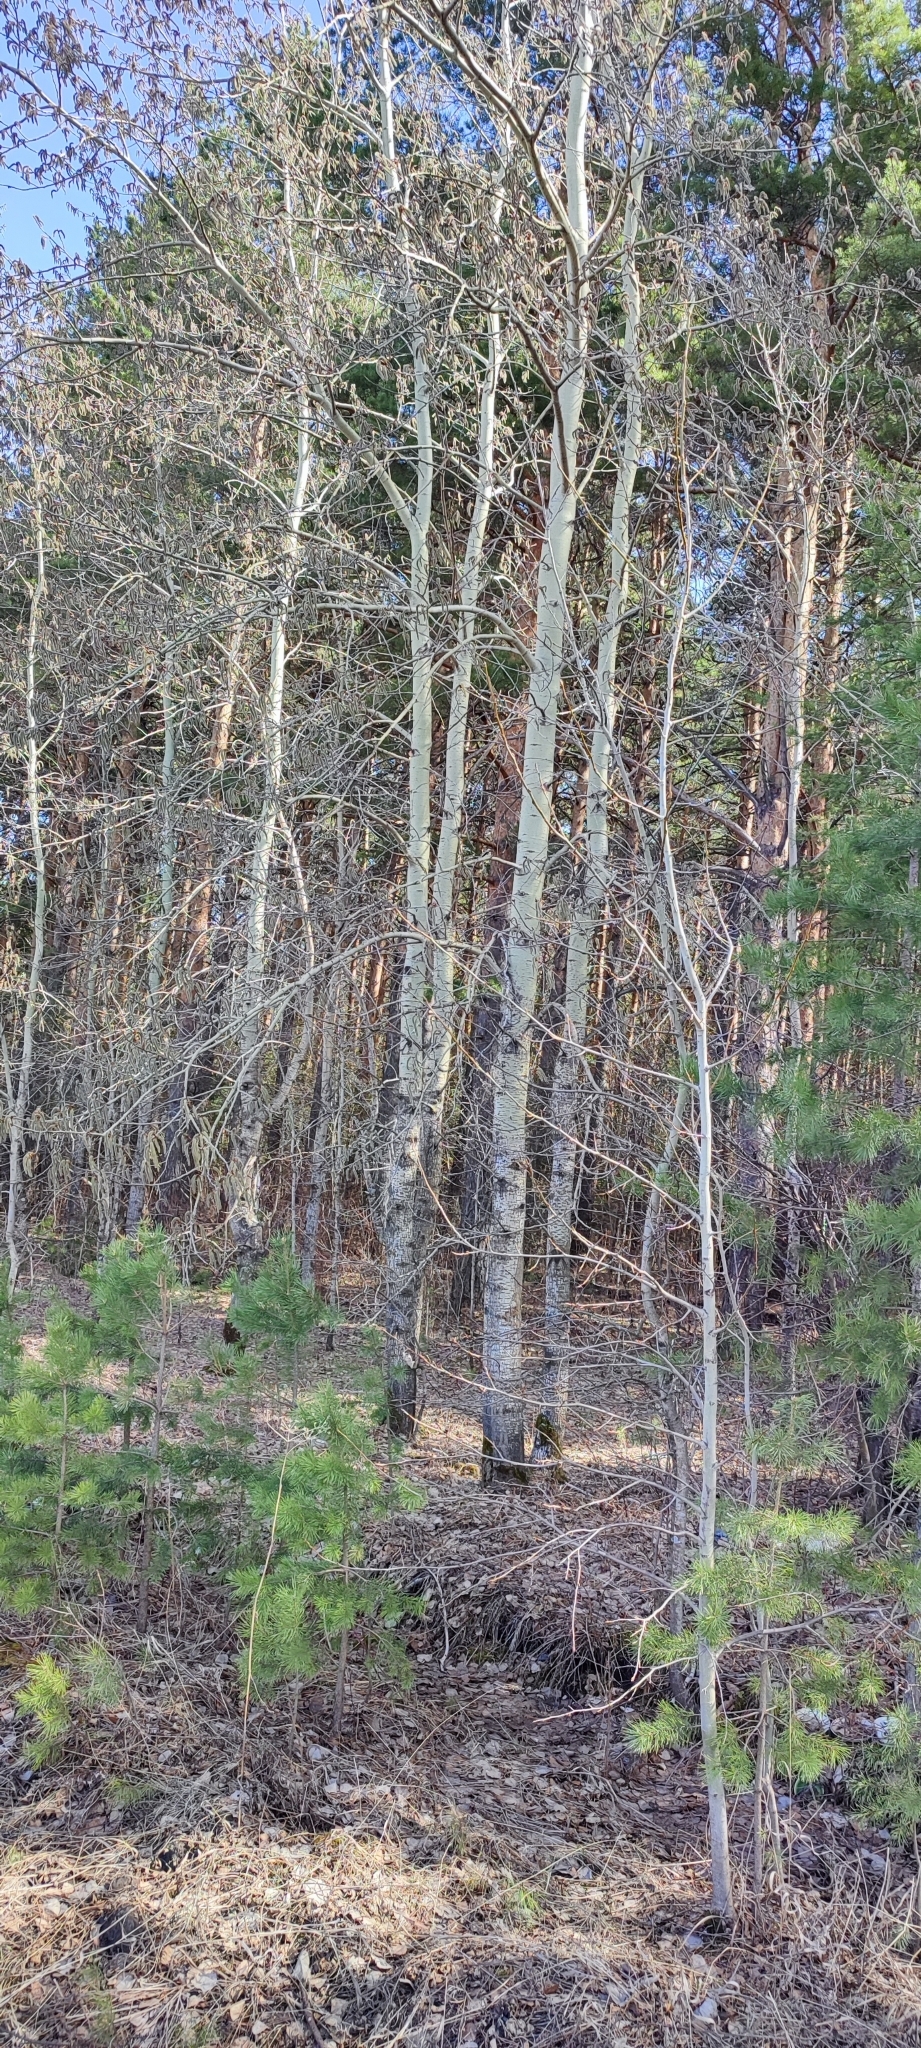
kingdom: Plantae
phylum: Tracheophyta
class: Magnoliopsida
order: Malpighiales
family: Salicaceae
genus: Populus
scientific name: Populus tremula
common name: European aspen
